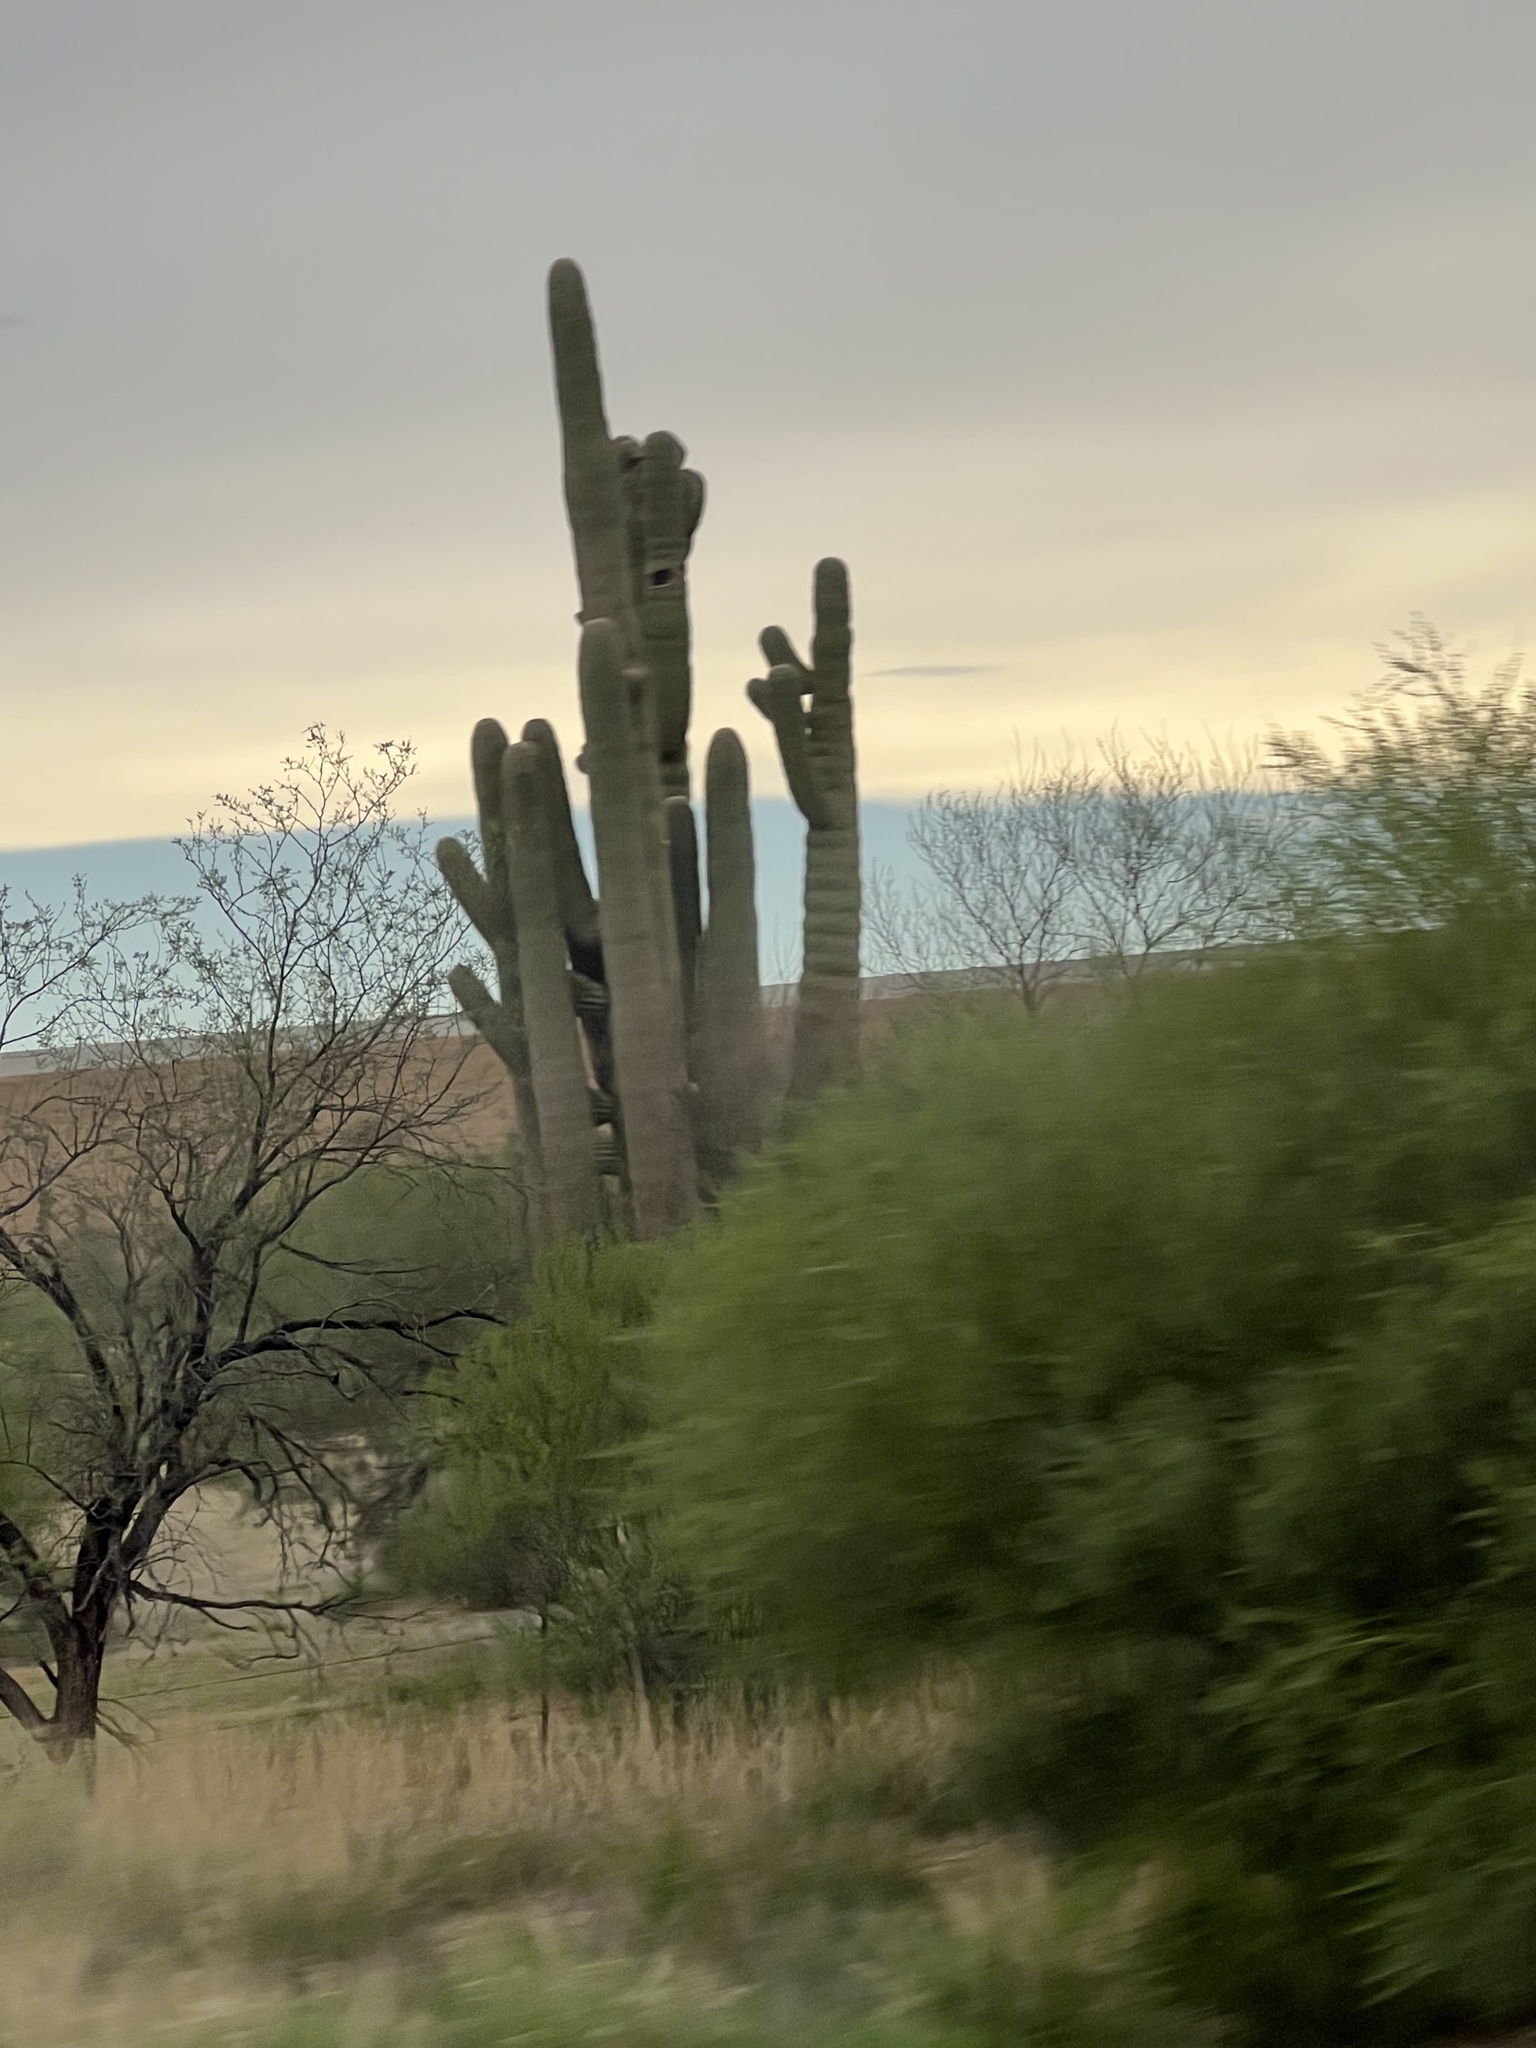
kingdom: Plantae
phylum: Tracheophyta
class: Magnoliopsida
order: Caryophyllales
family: Cactaceae
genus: Carnegiea
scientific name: Carnegiea gigantea
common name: Saguaro
